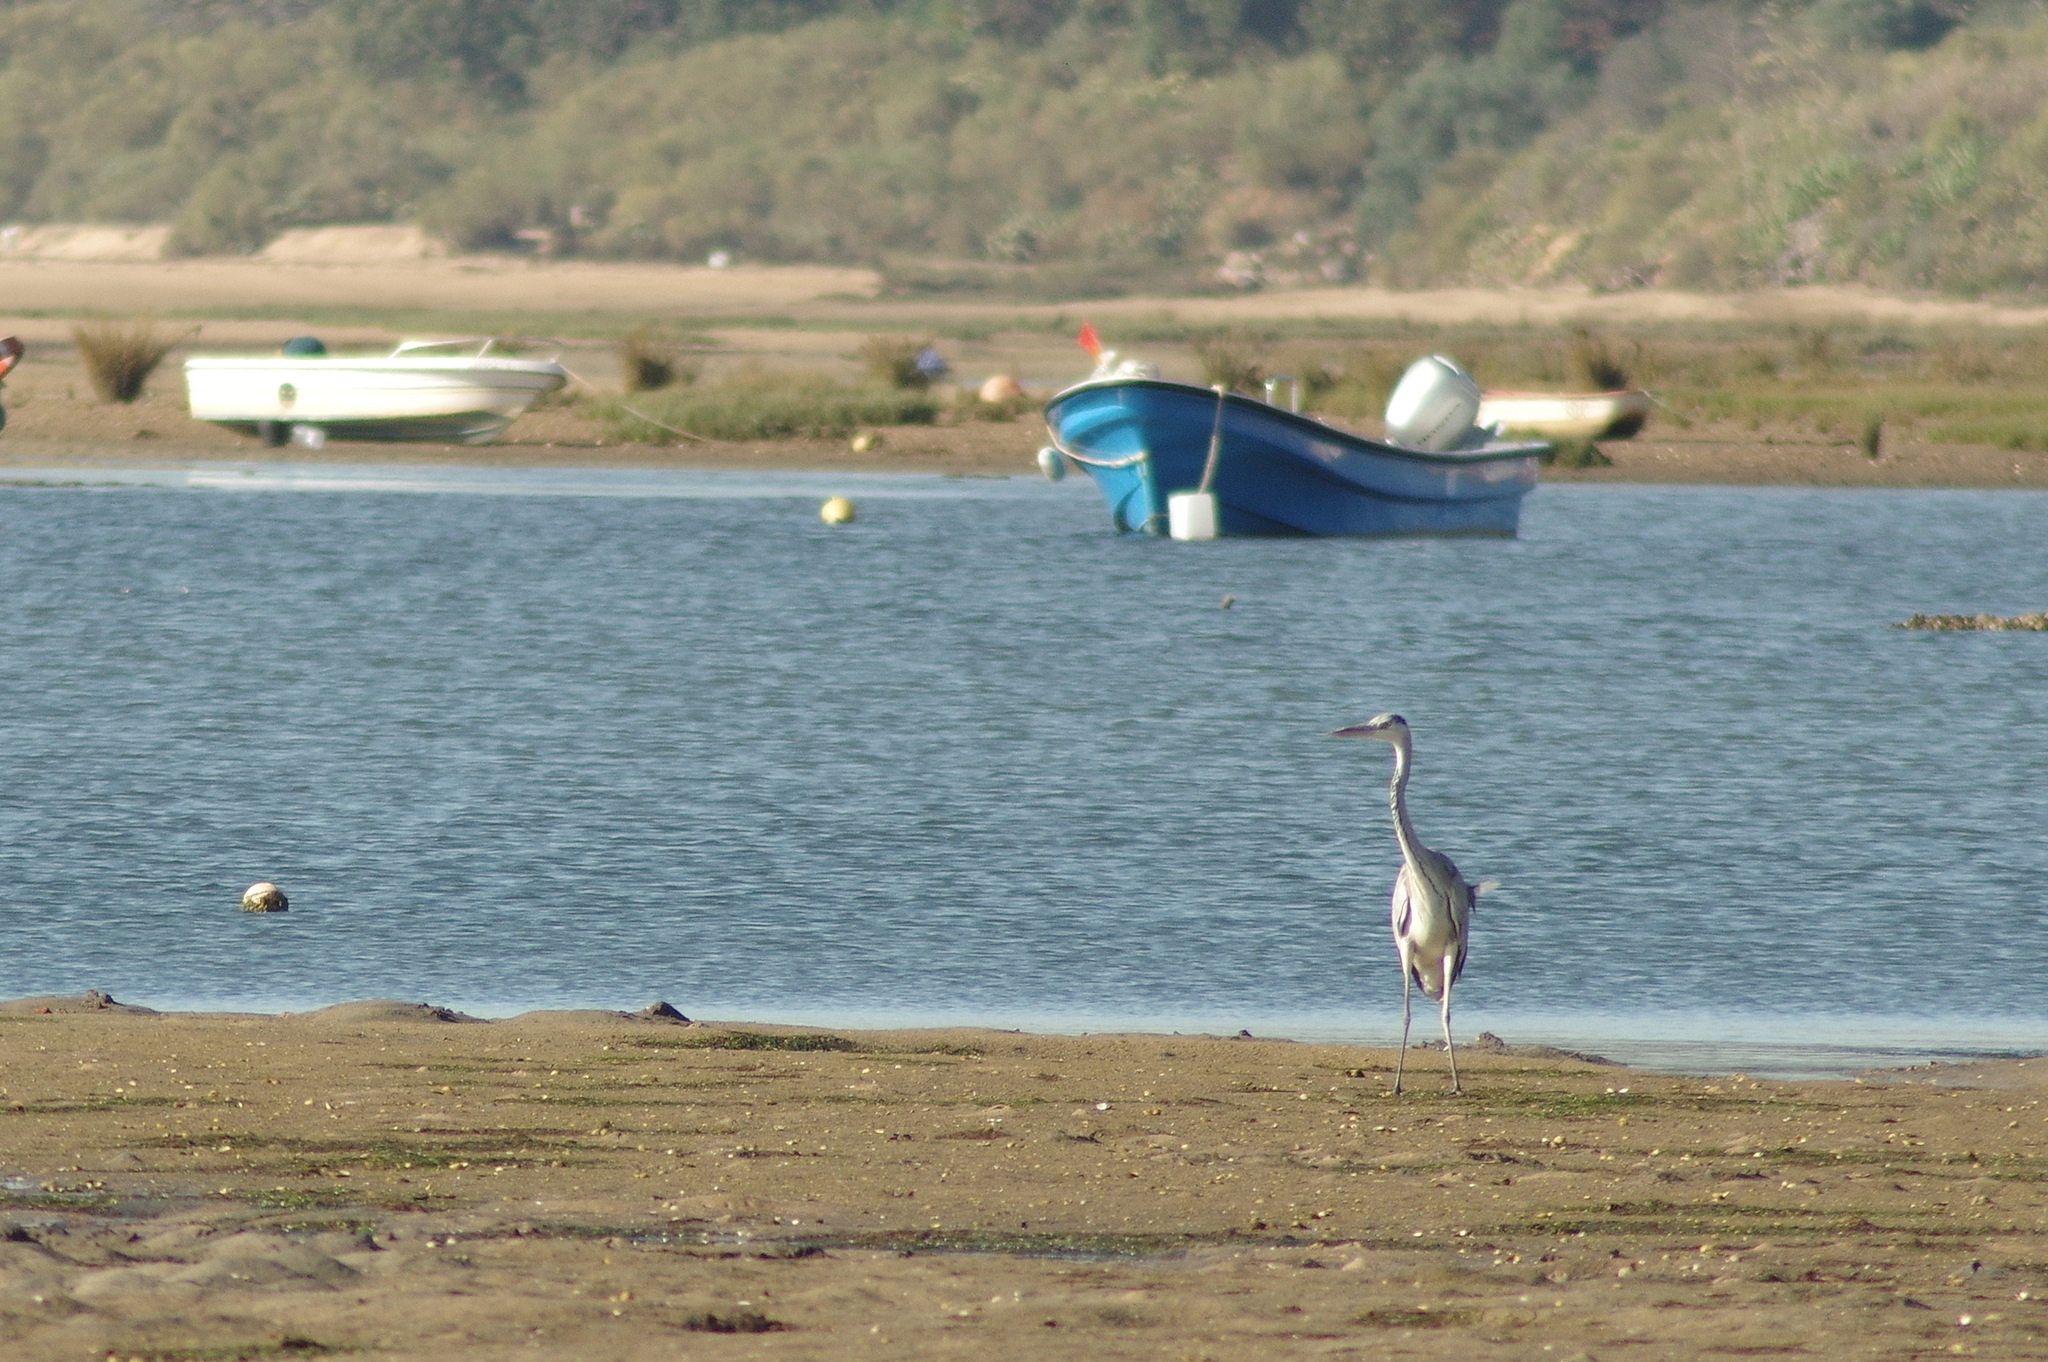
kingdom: Animalia
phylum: Chordata
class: Aves
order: Pelecaniformes
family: Ardeidae
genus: Ardea
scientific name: Ardea cinerea
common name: Grey heron
